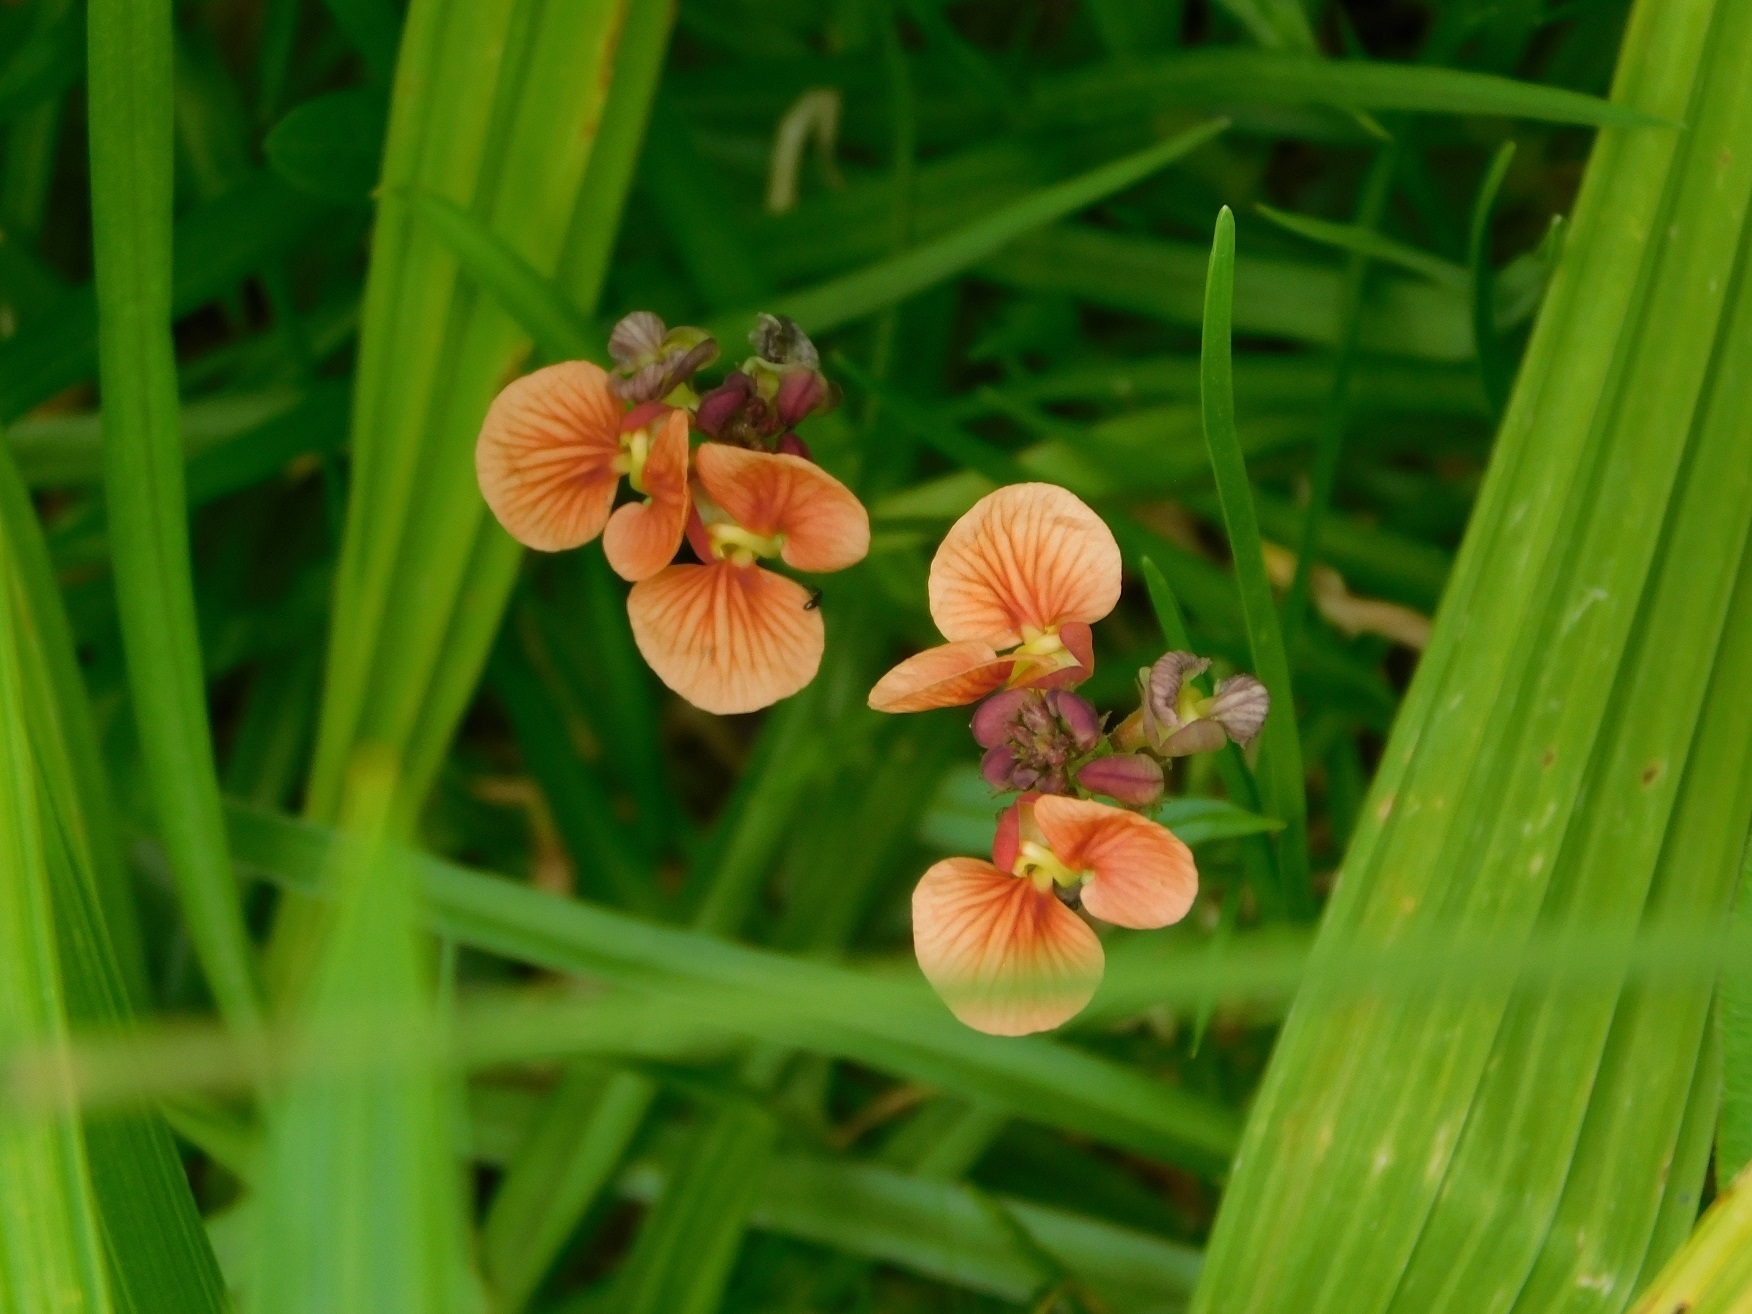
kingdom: Plantae
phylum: Tracheophyta
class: Magnoliopsida
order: Fabales
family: Fabaceae
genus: Macroptilium
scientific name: Macroptilium gibbosifolium
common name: Variableleaf bushbean
